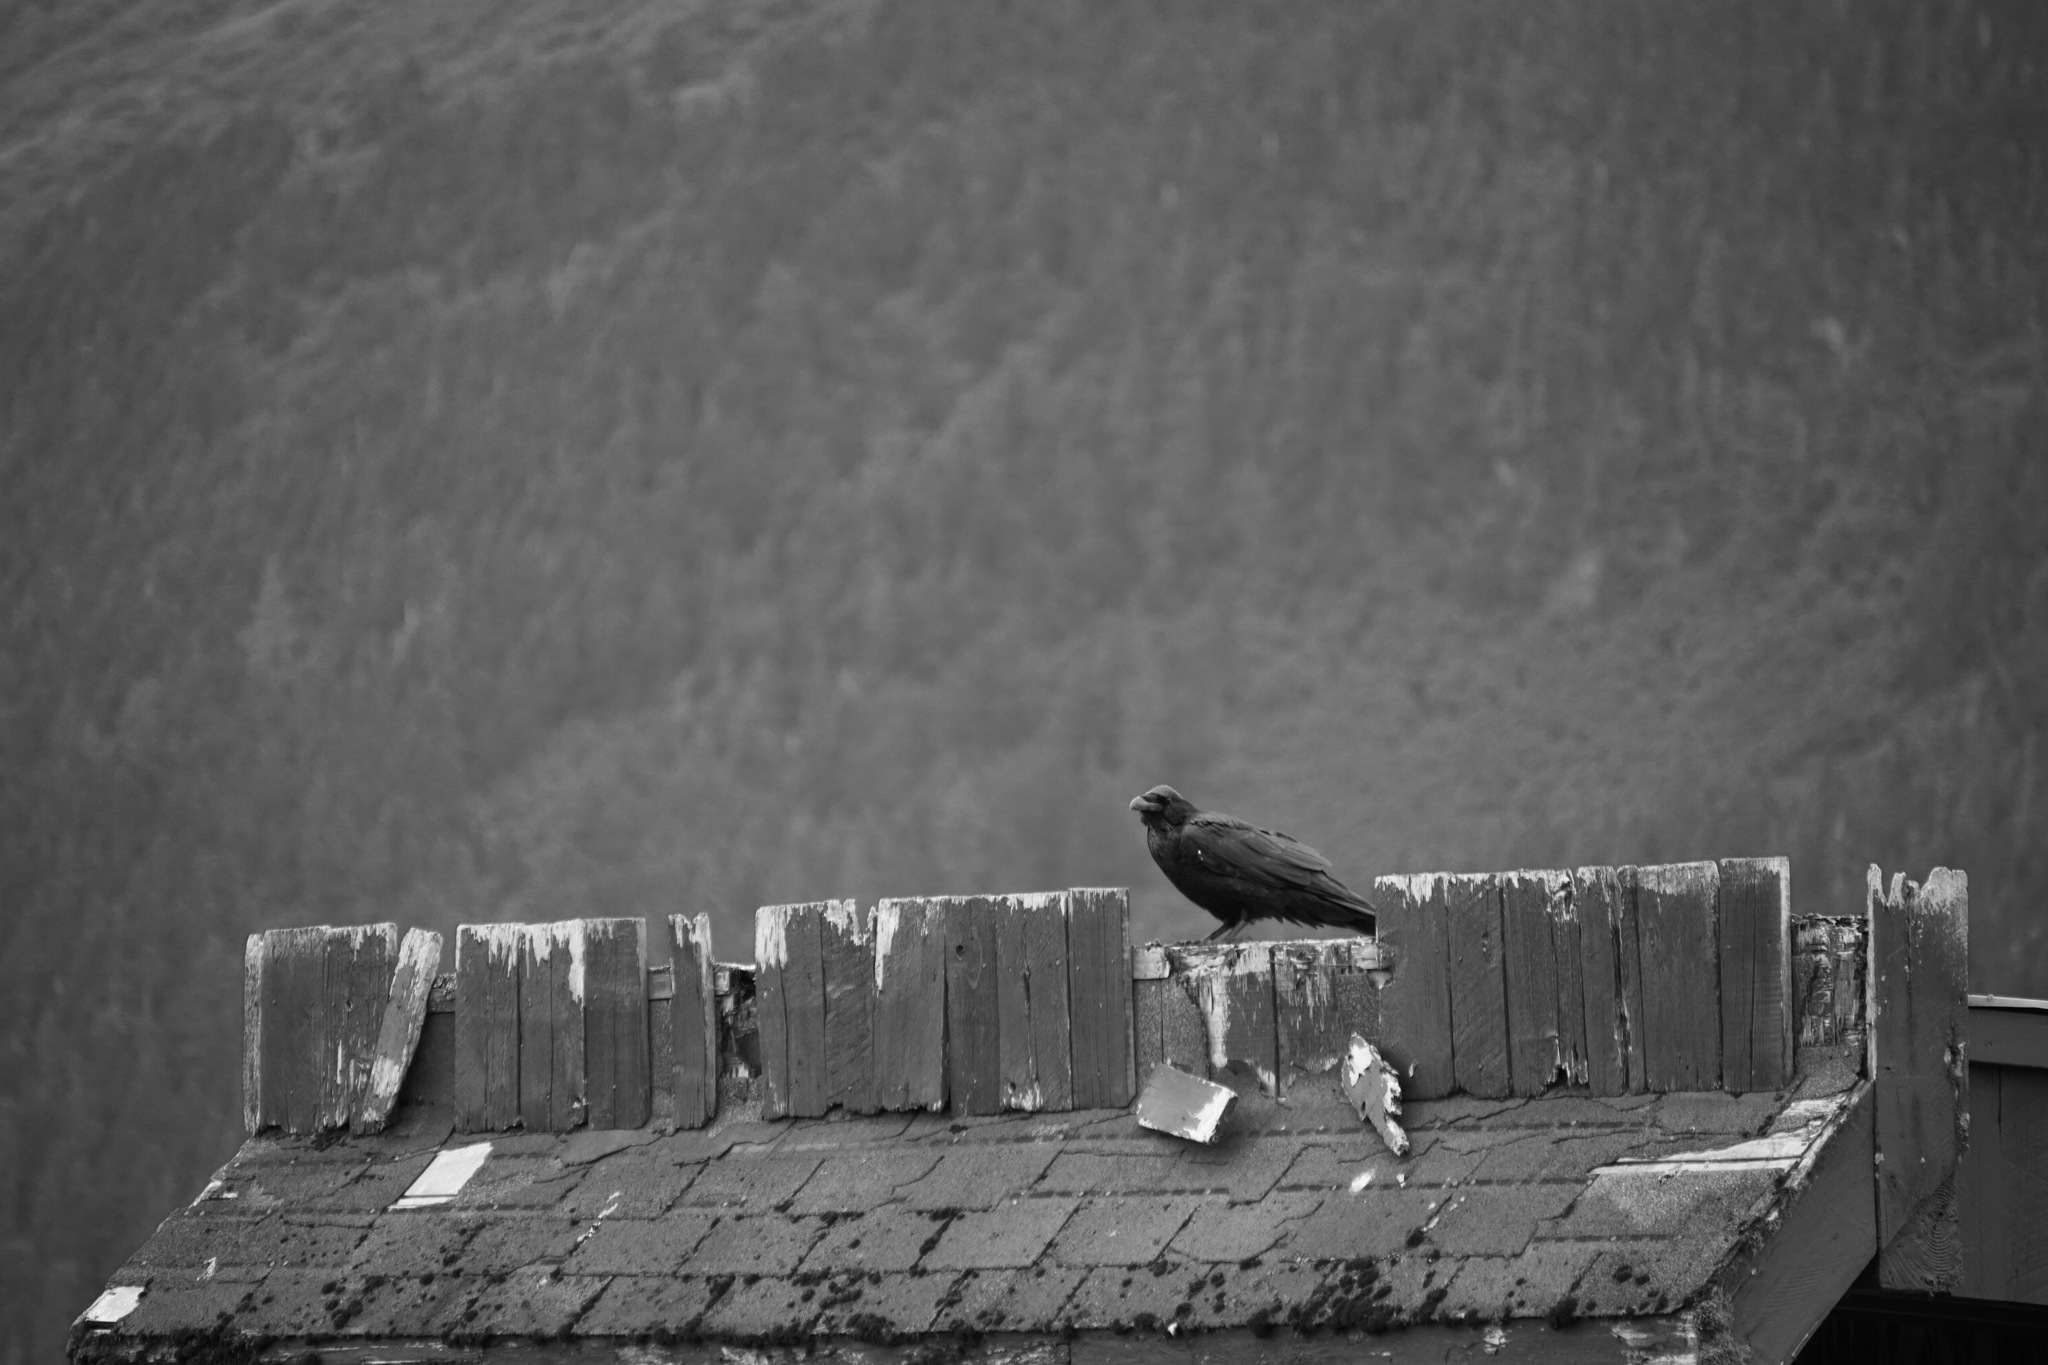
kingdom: Animalia
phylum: Chordata
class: Aves
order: Passeriformes
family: Corvidae
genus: Corvus
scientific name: Corvus corax
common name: Common raven
